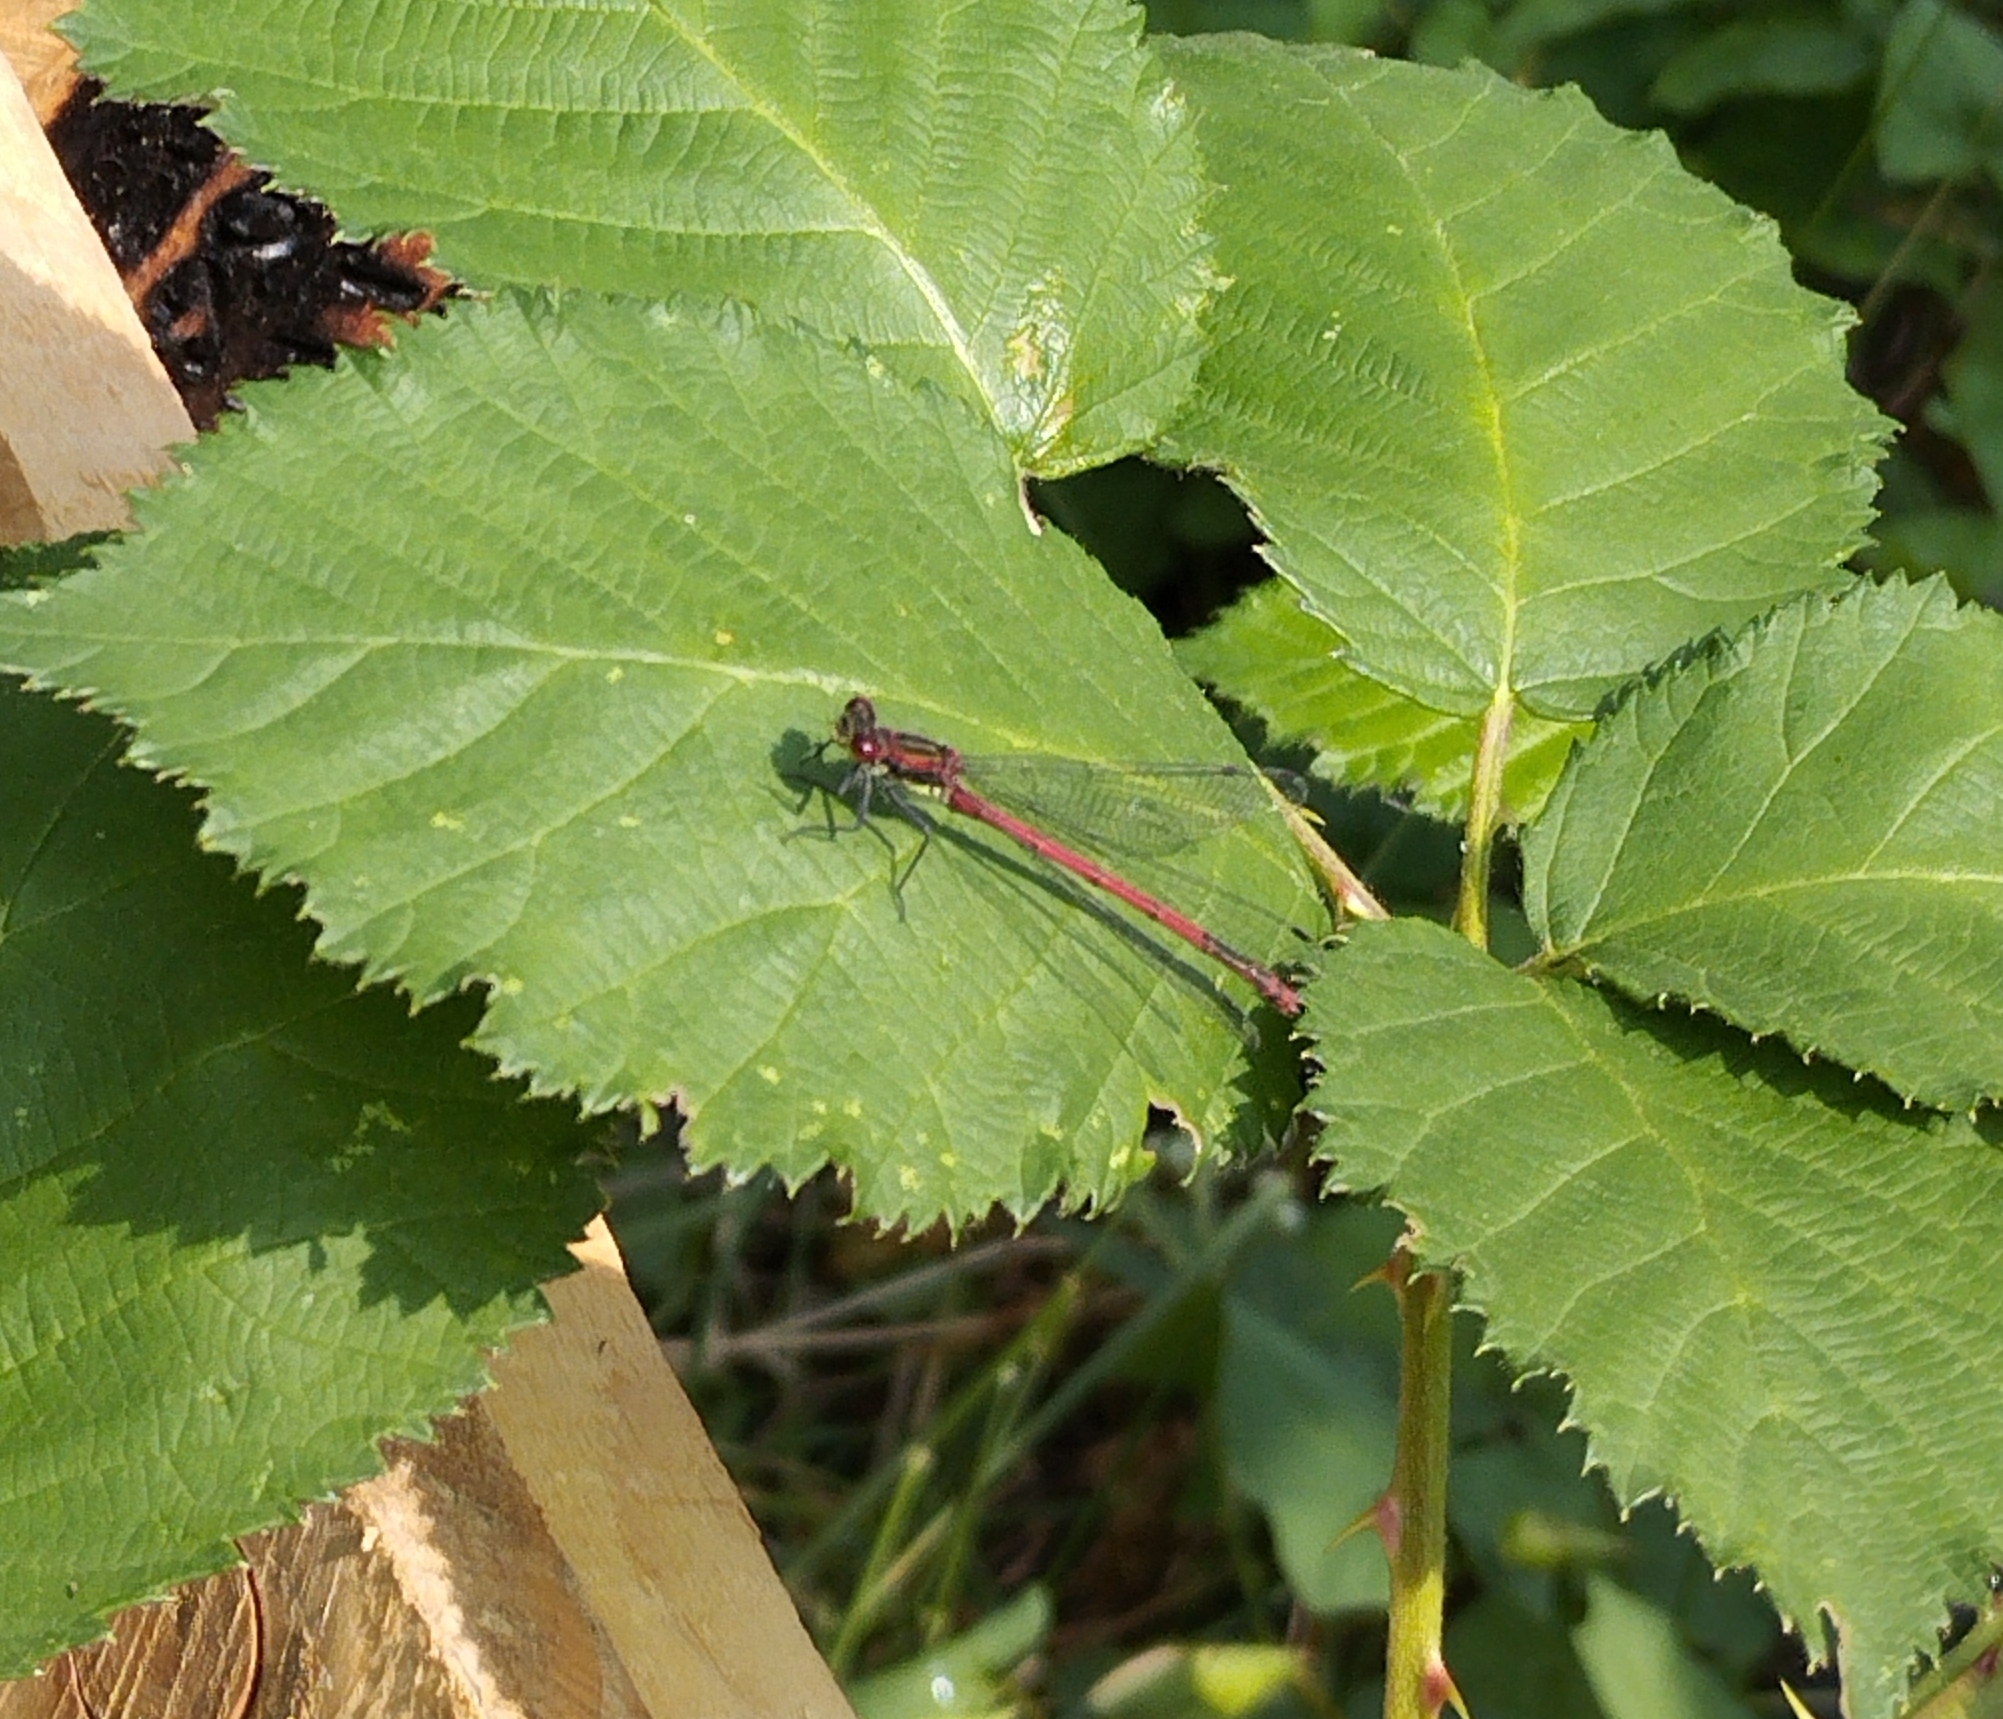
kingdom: Animalia
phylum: Arthropoda
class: Insecta
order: Odonata
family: Coenagrionidae
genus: Pyrrhosoma
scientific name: Pyrrhosoma nymphula
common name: Large red damsel
